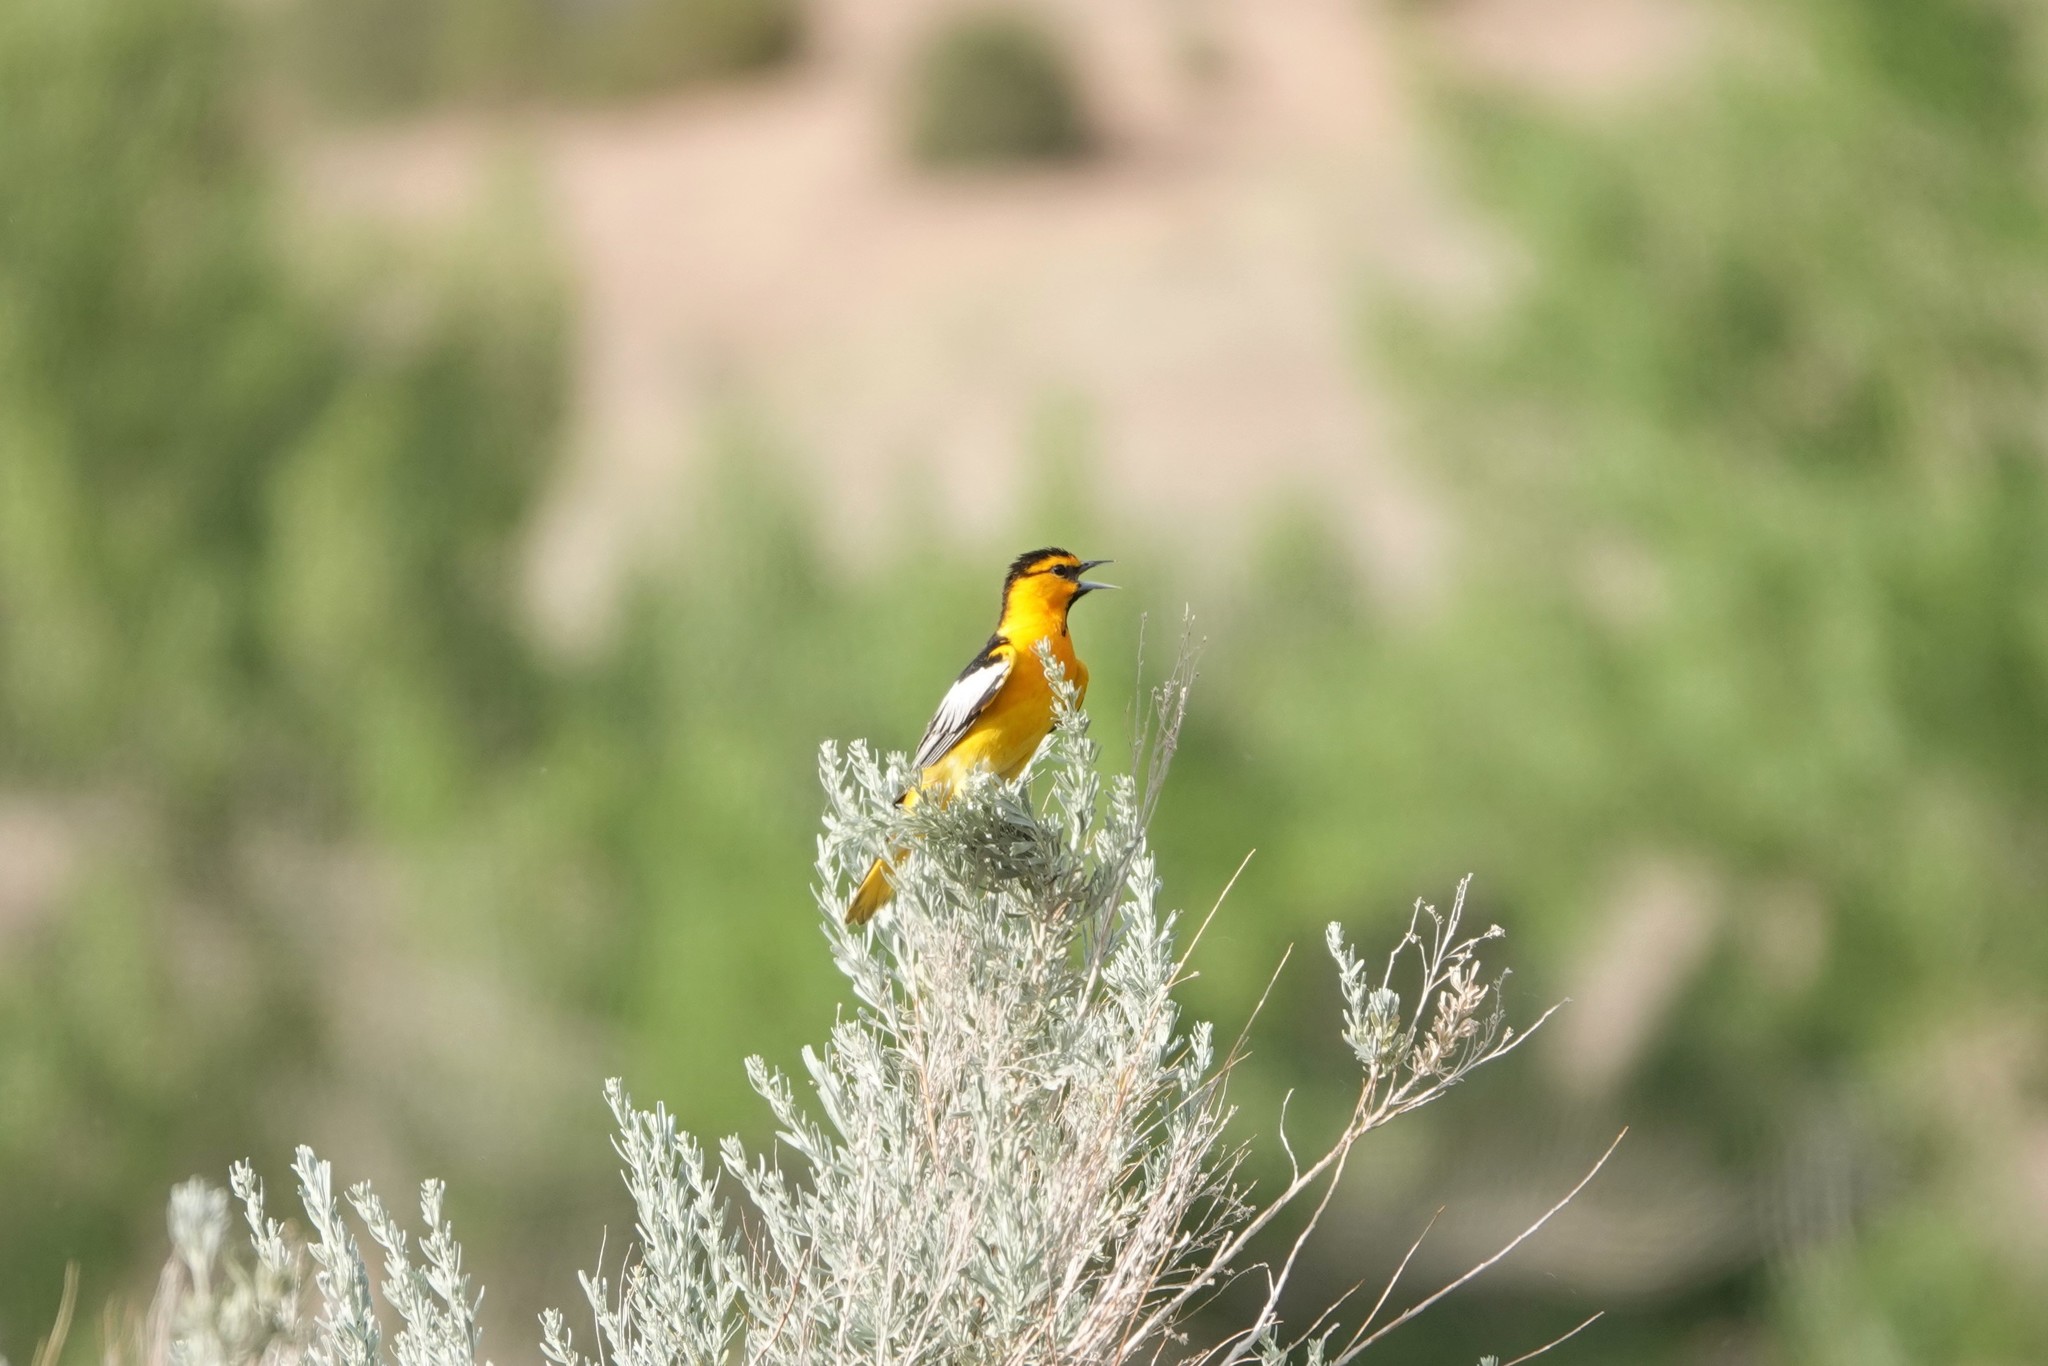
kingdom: Animalia
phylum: Chordata
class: Aves
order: Passeriformes
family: Icteridae
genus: Icterus
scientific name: Icterus bullockii
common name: Bullock's oriole
